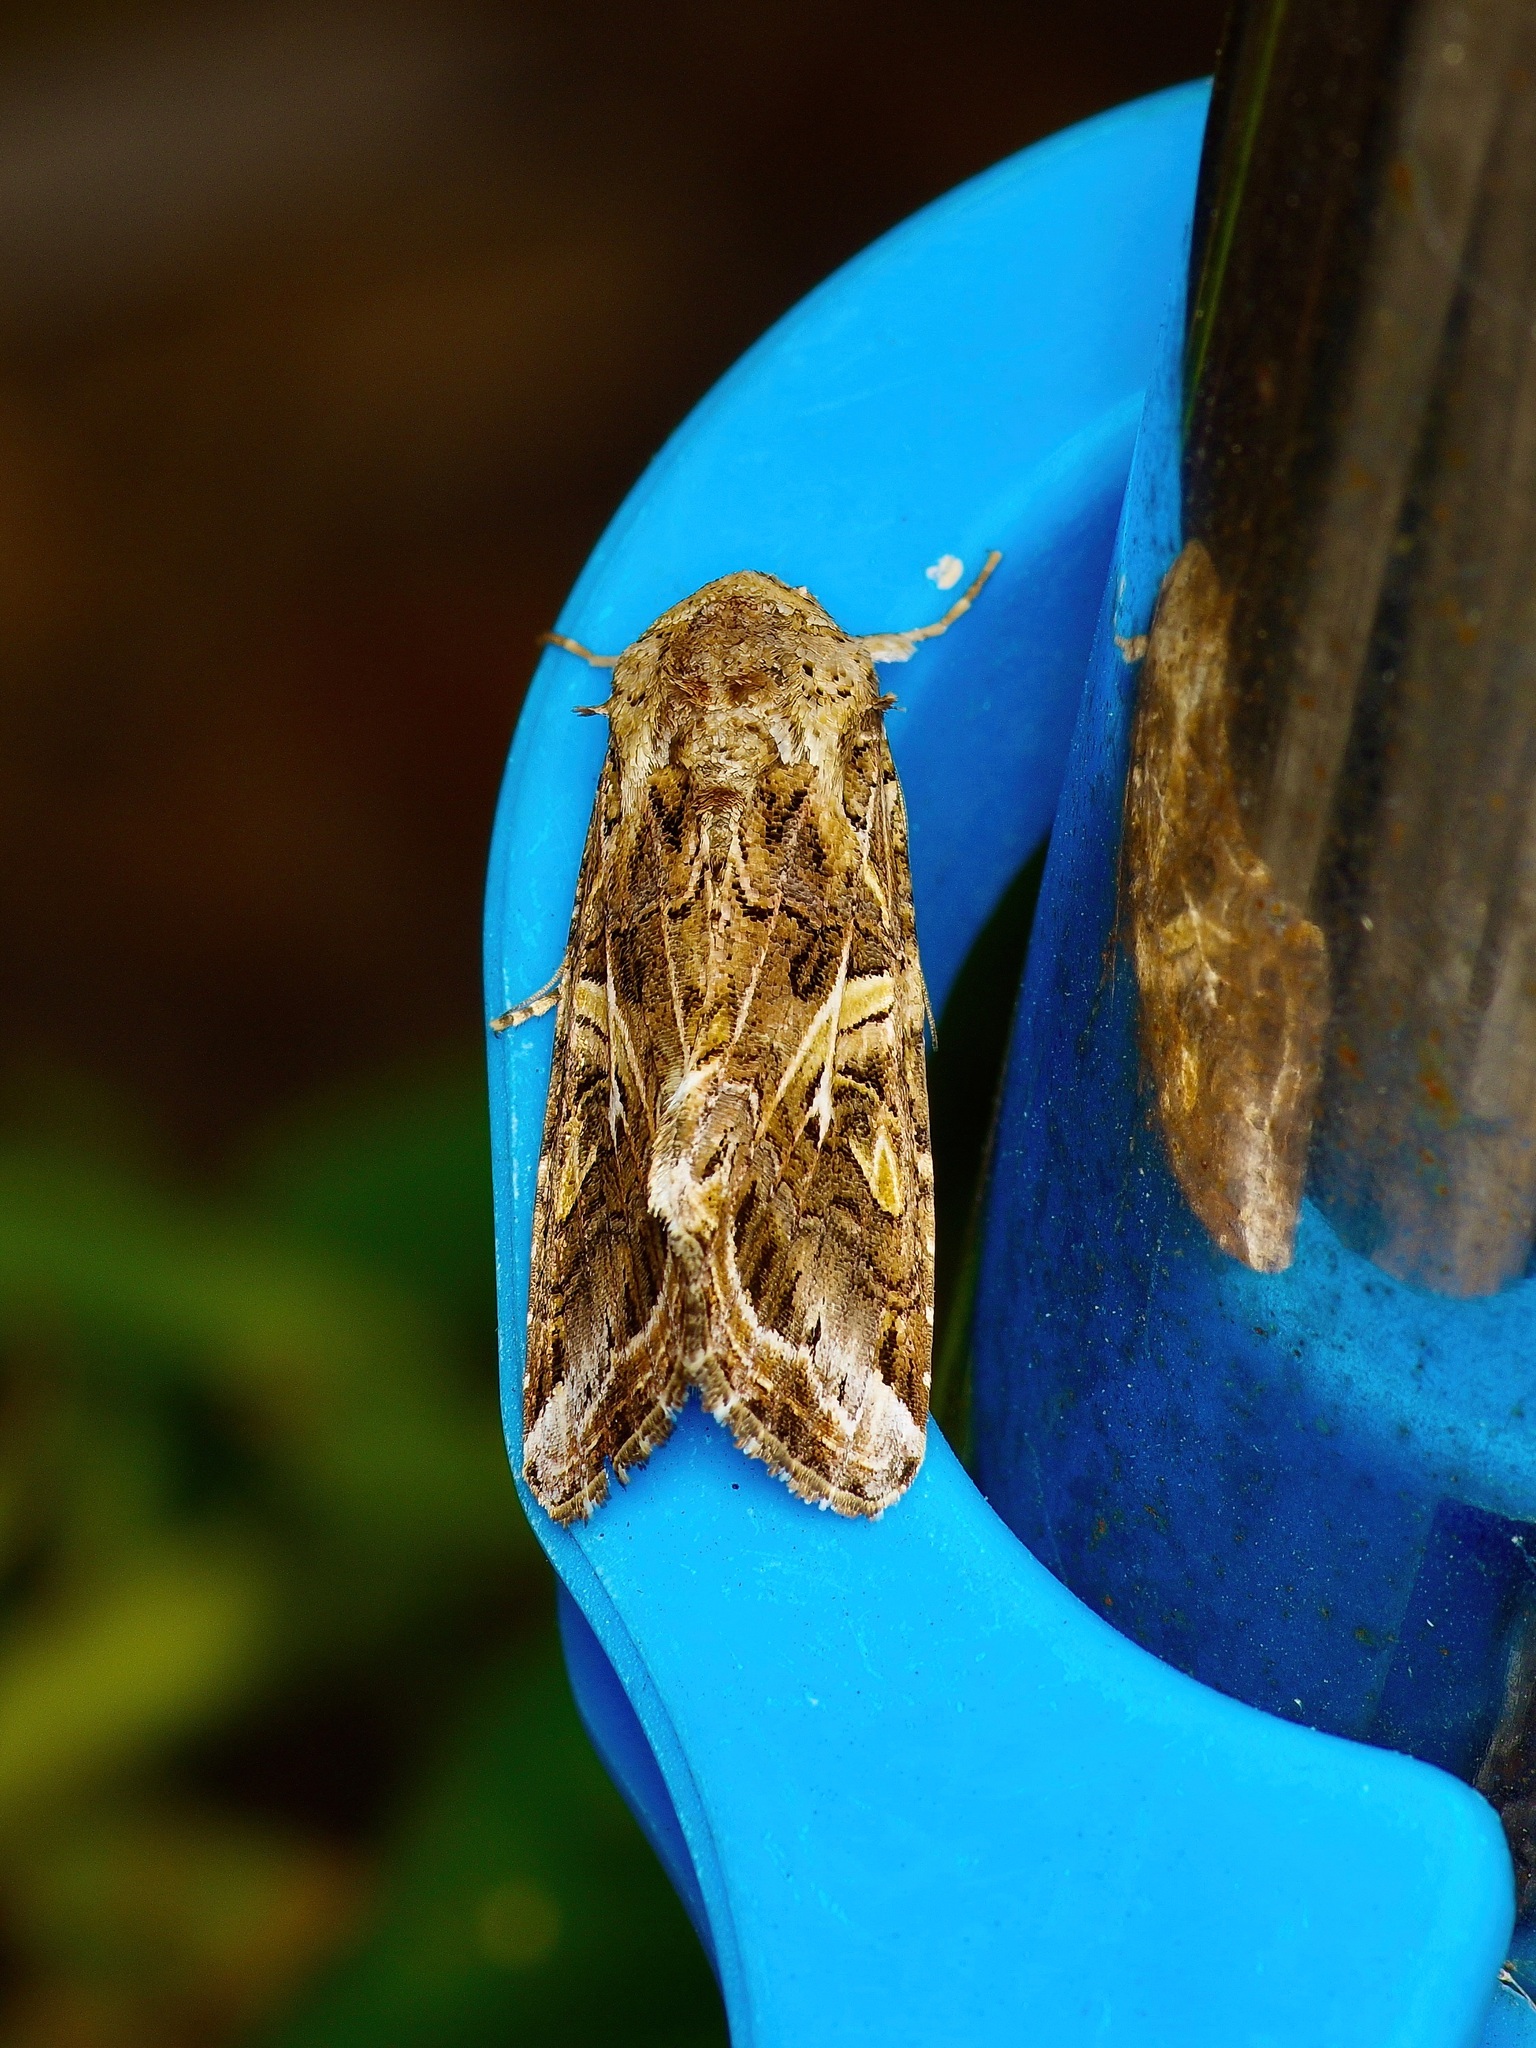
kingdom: Animalia
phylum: Arthropoda
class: Insecta
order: Lepidoptera
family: Noctuidae
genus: Spodoptera
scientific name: Spodoptera ornithogalli
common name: Yellow-striped armyworm
